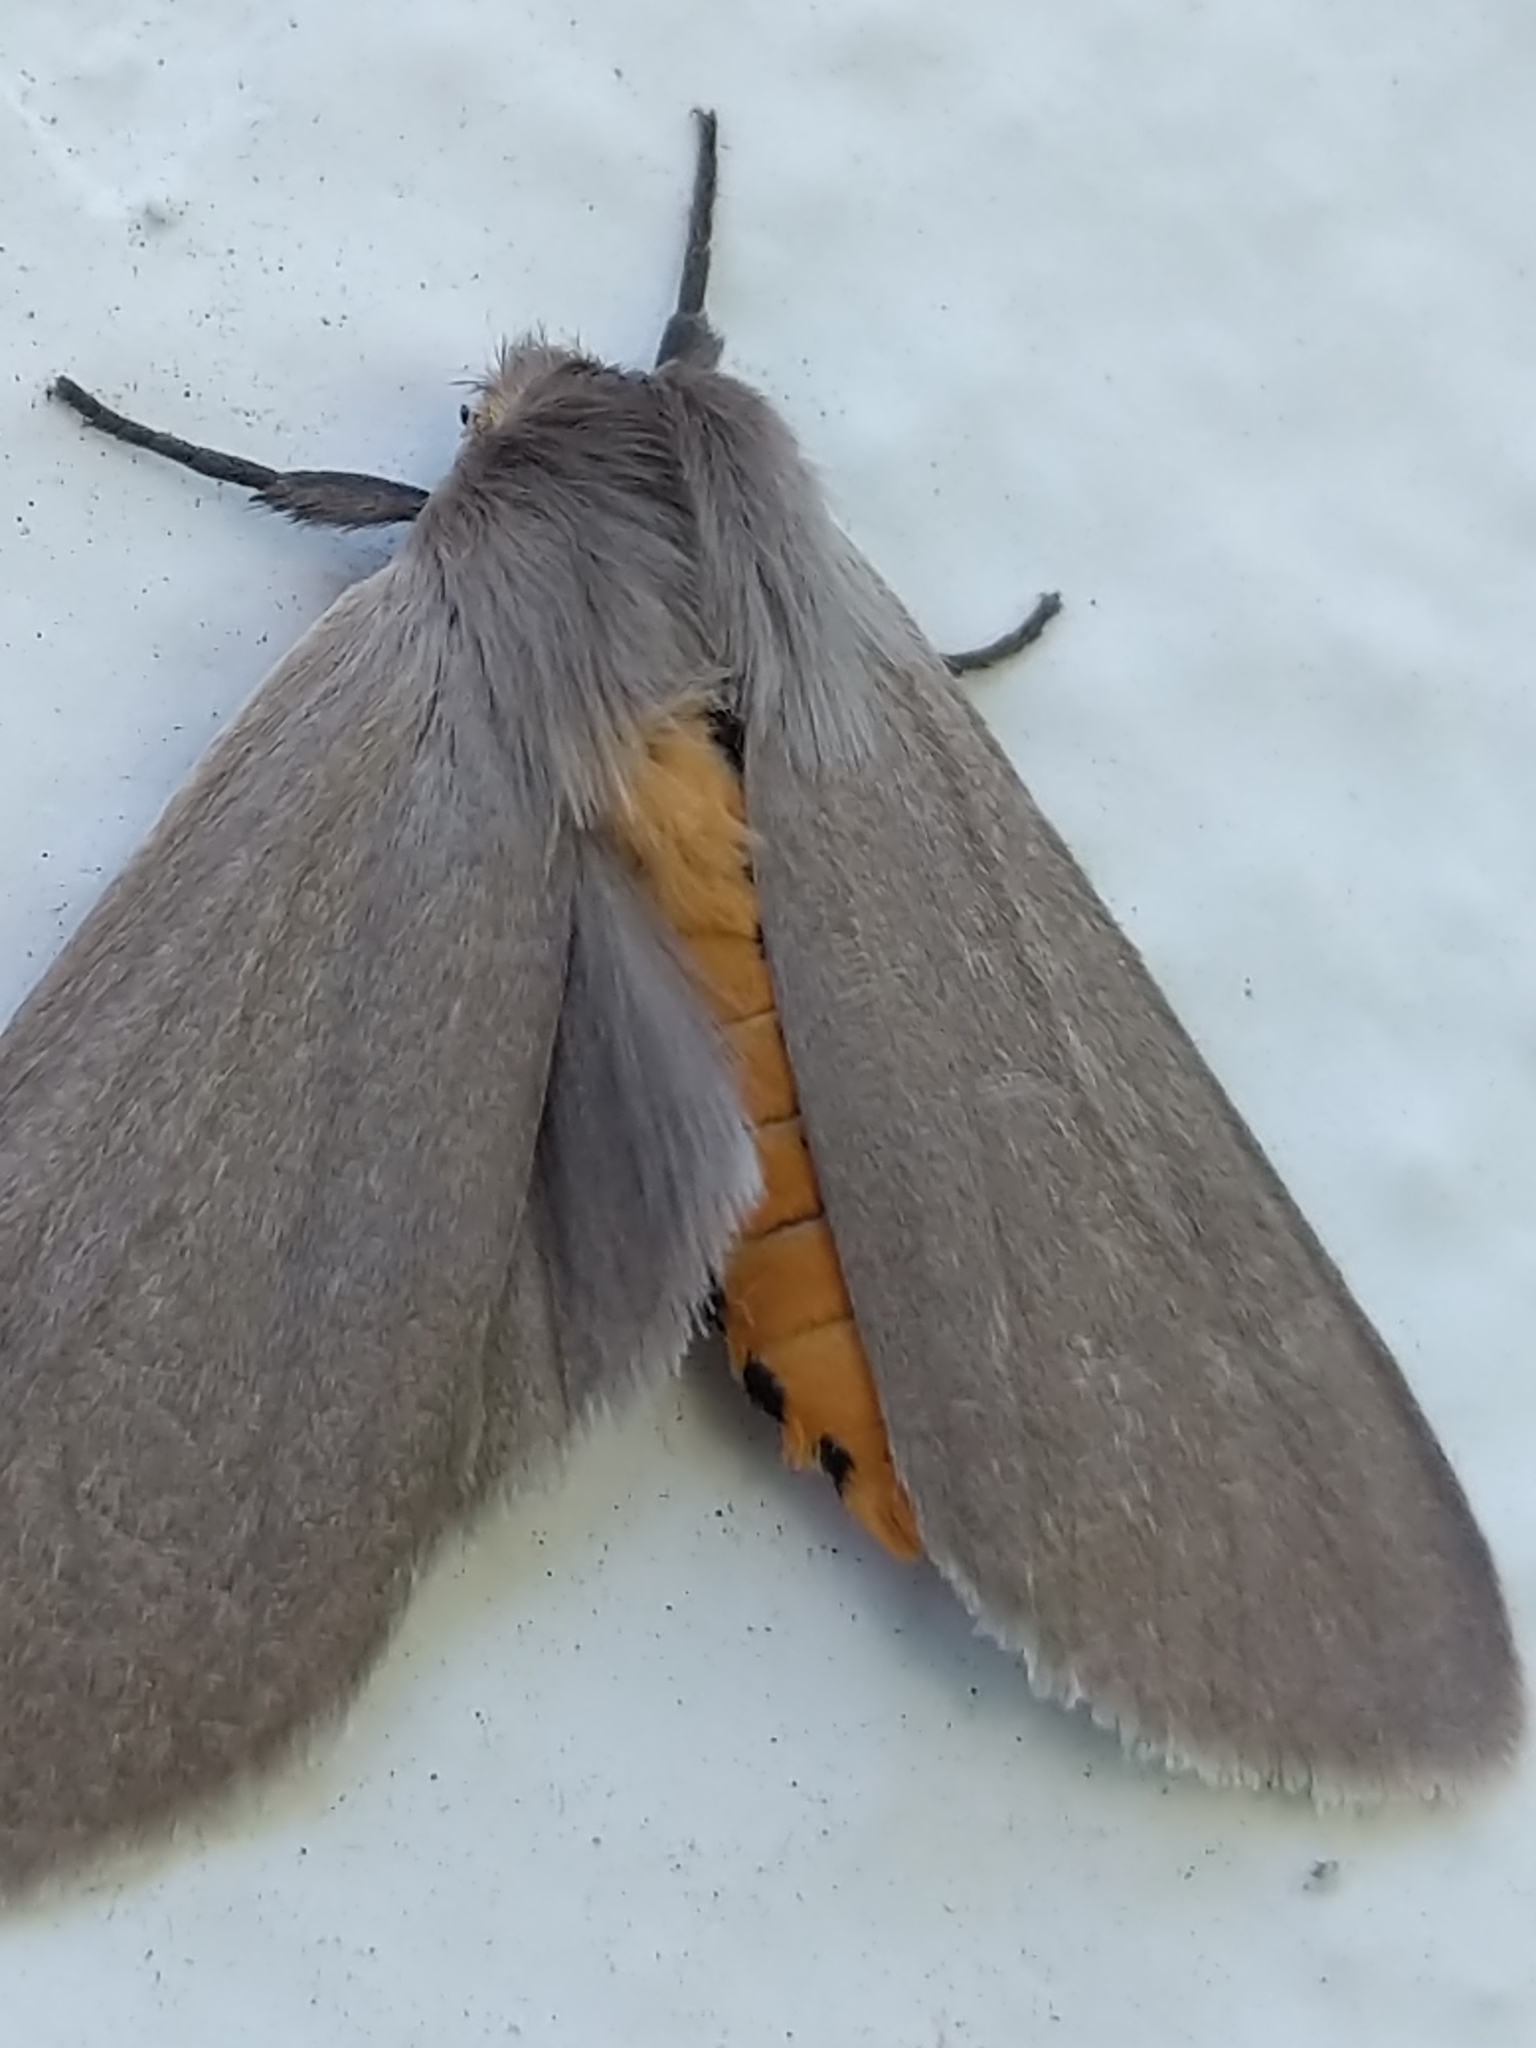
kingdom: Animalia
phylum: Arthropoda
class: Insecta
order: Lepidoptera
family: Erebidae
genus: Euchaetes
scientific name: Euchaetes egle
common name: Milkweed tussock moth
